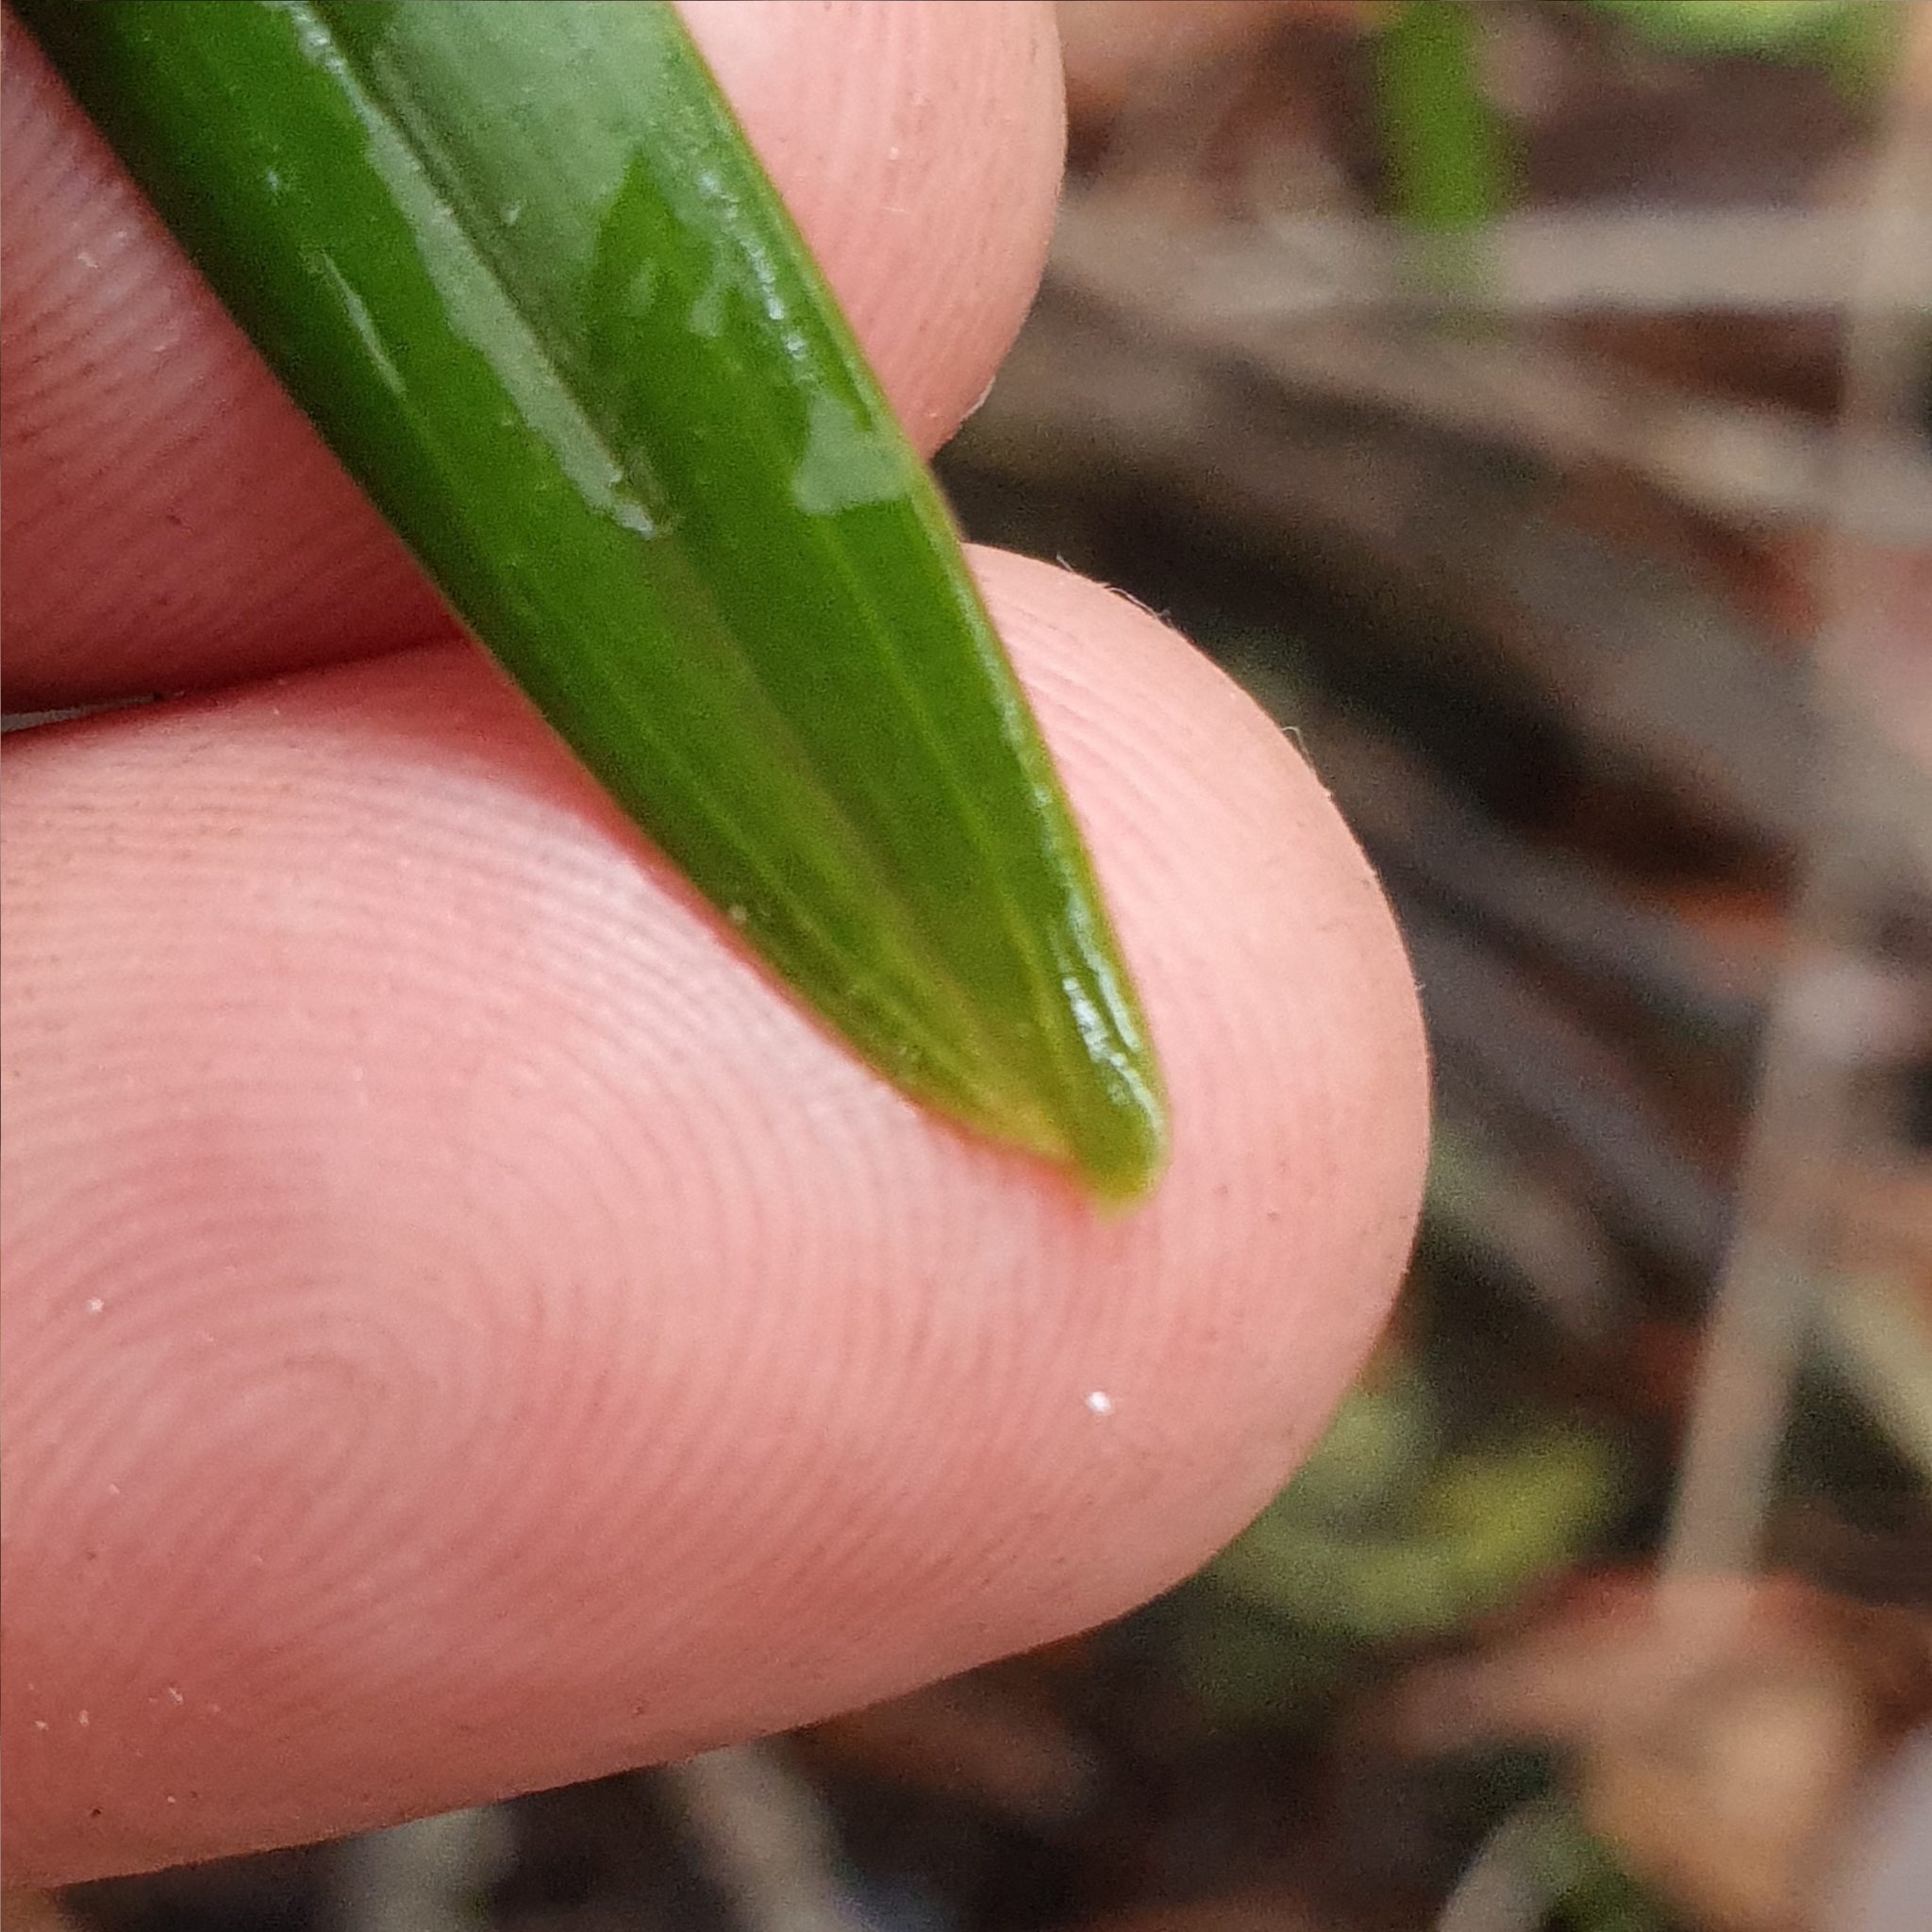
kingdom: Plantae
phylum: Tracheophyta
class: Liliopsida
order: Asparagales
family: Orchidaceae
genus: Cymbidium
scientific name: Cymbidium suave
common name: Snake orchid
